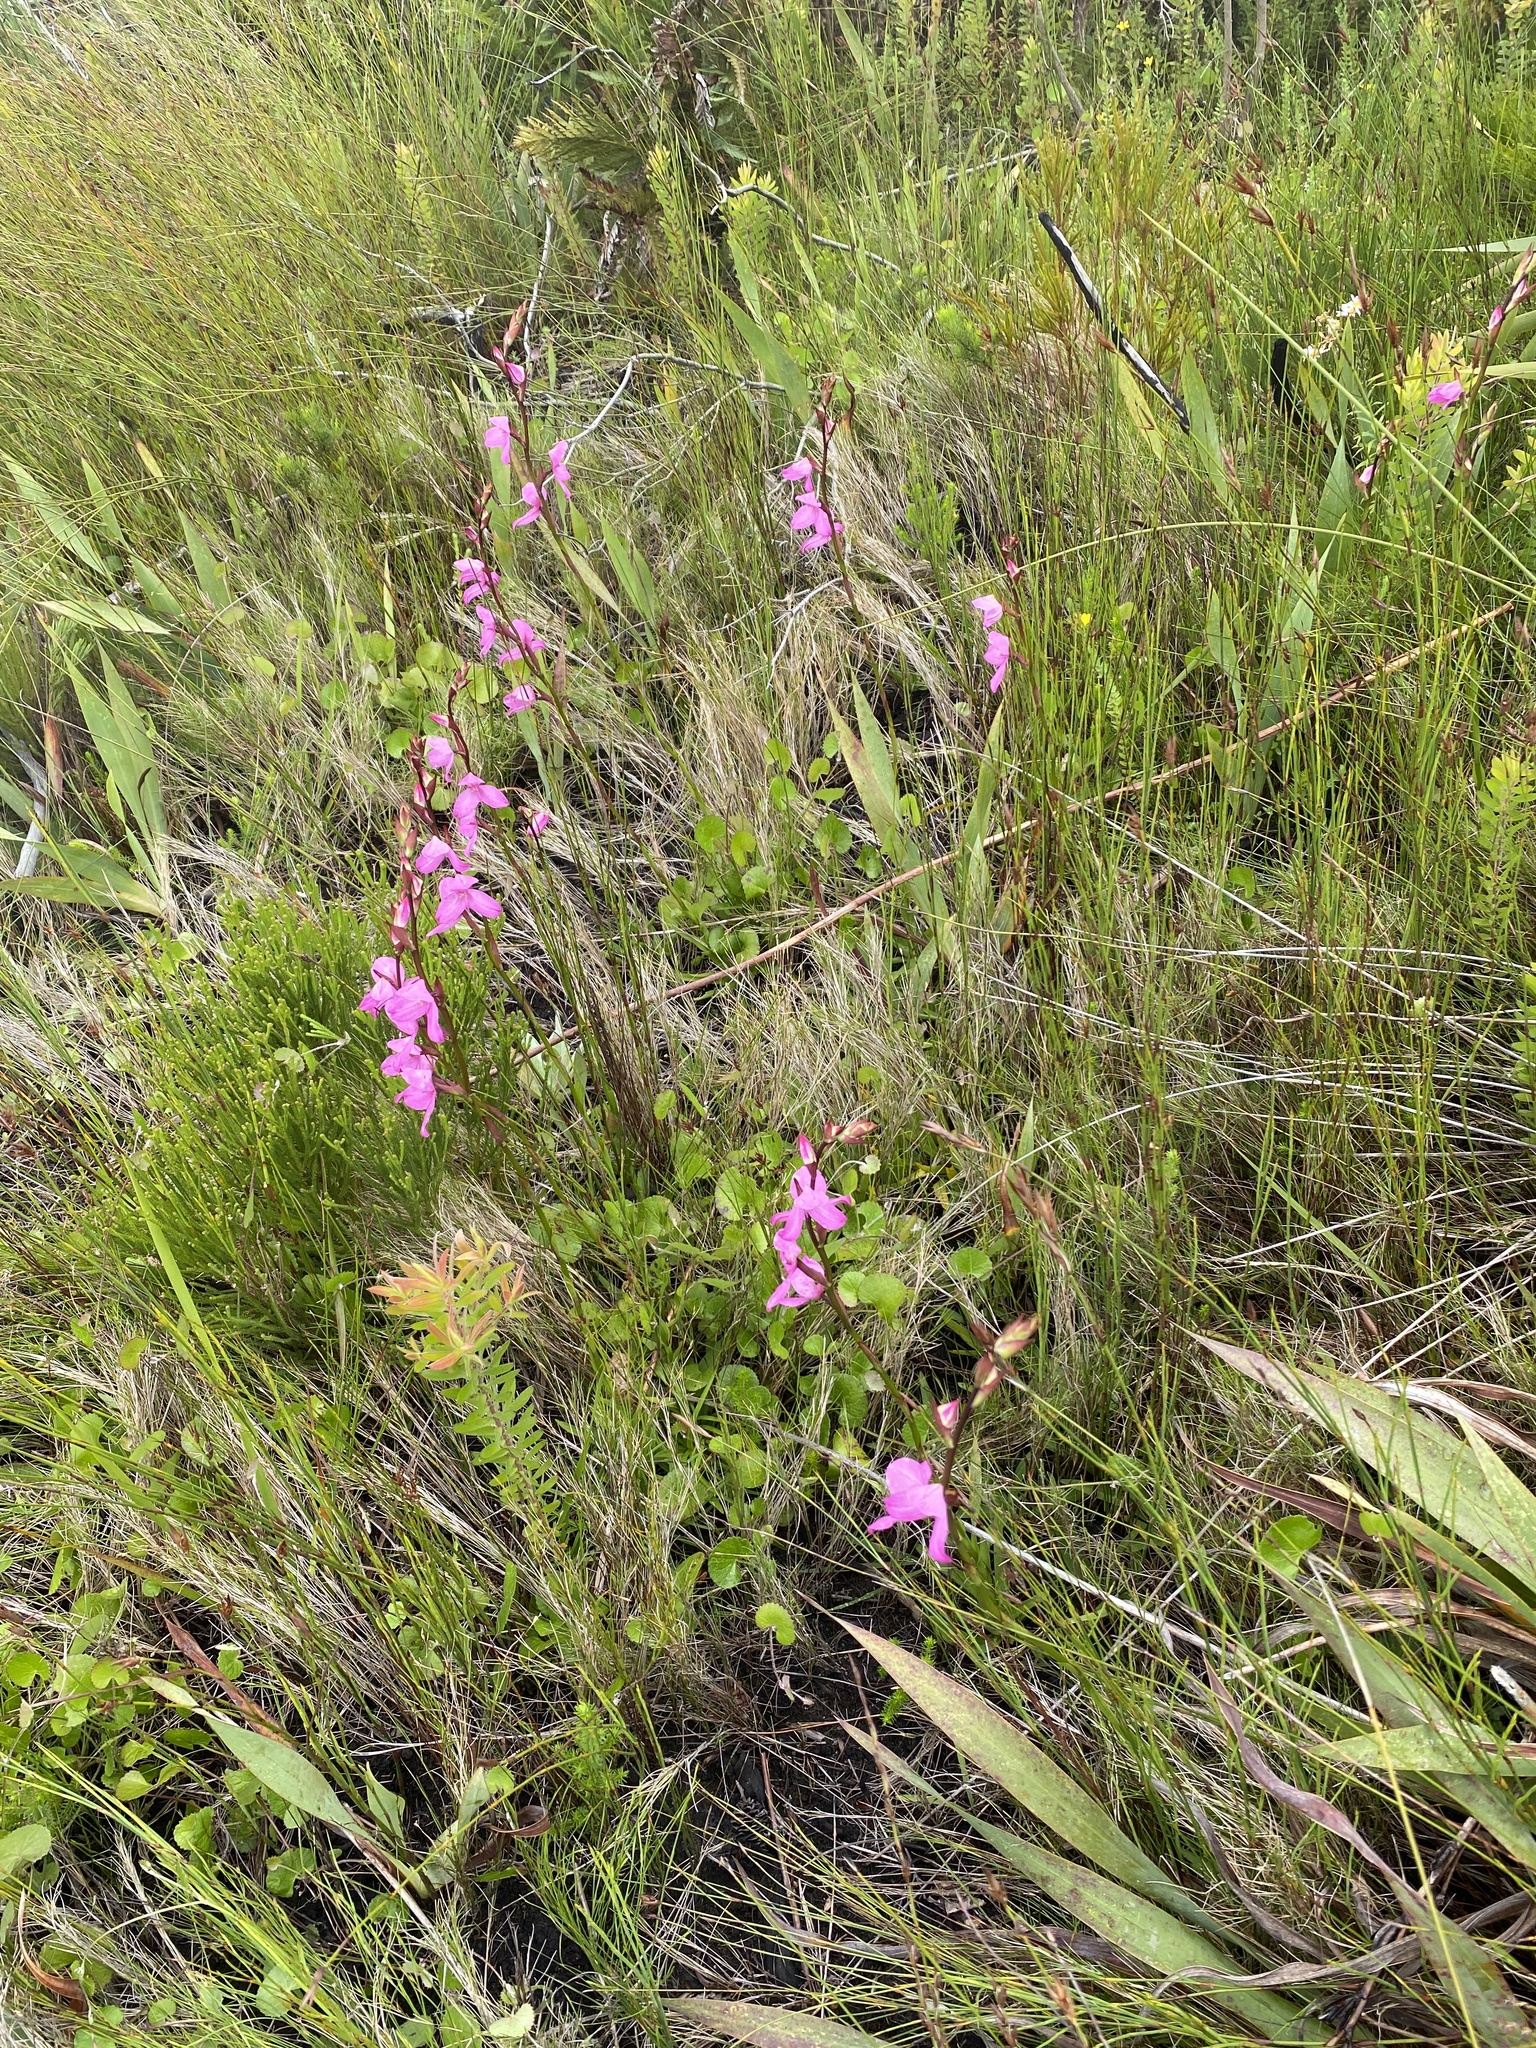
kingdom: Plantae
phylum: Tracheophyta
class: Liliopsida
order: Asparagales
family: Orchidaceae
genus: Disa
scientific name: Disa racemosa
